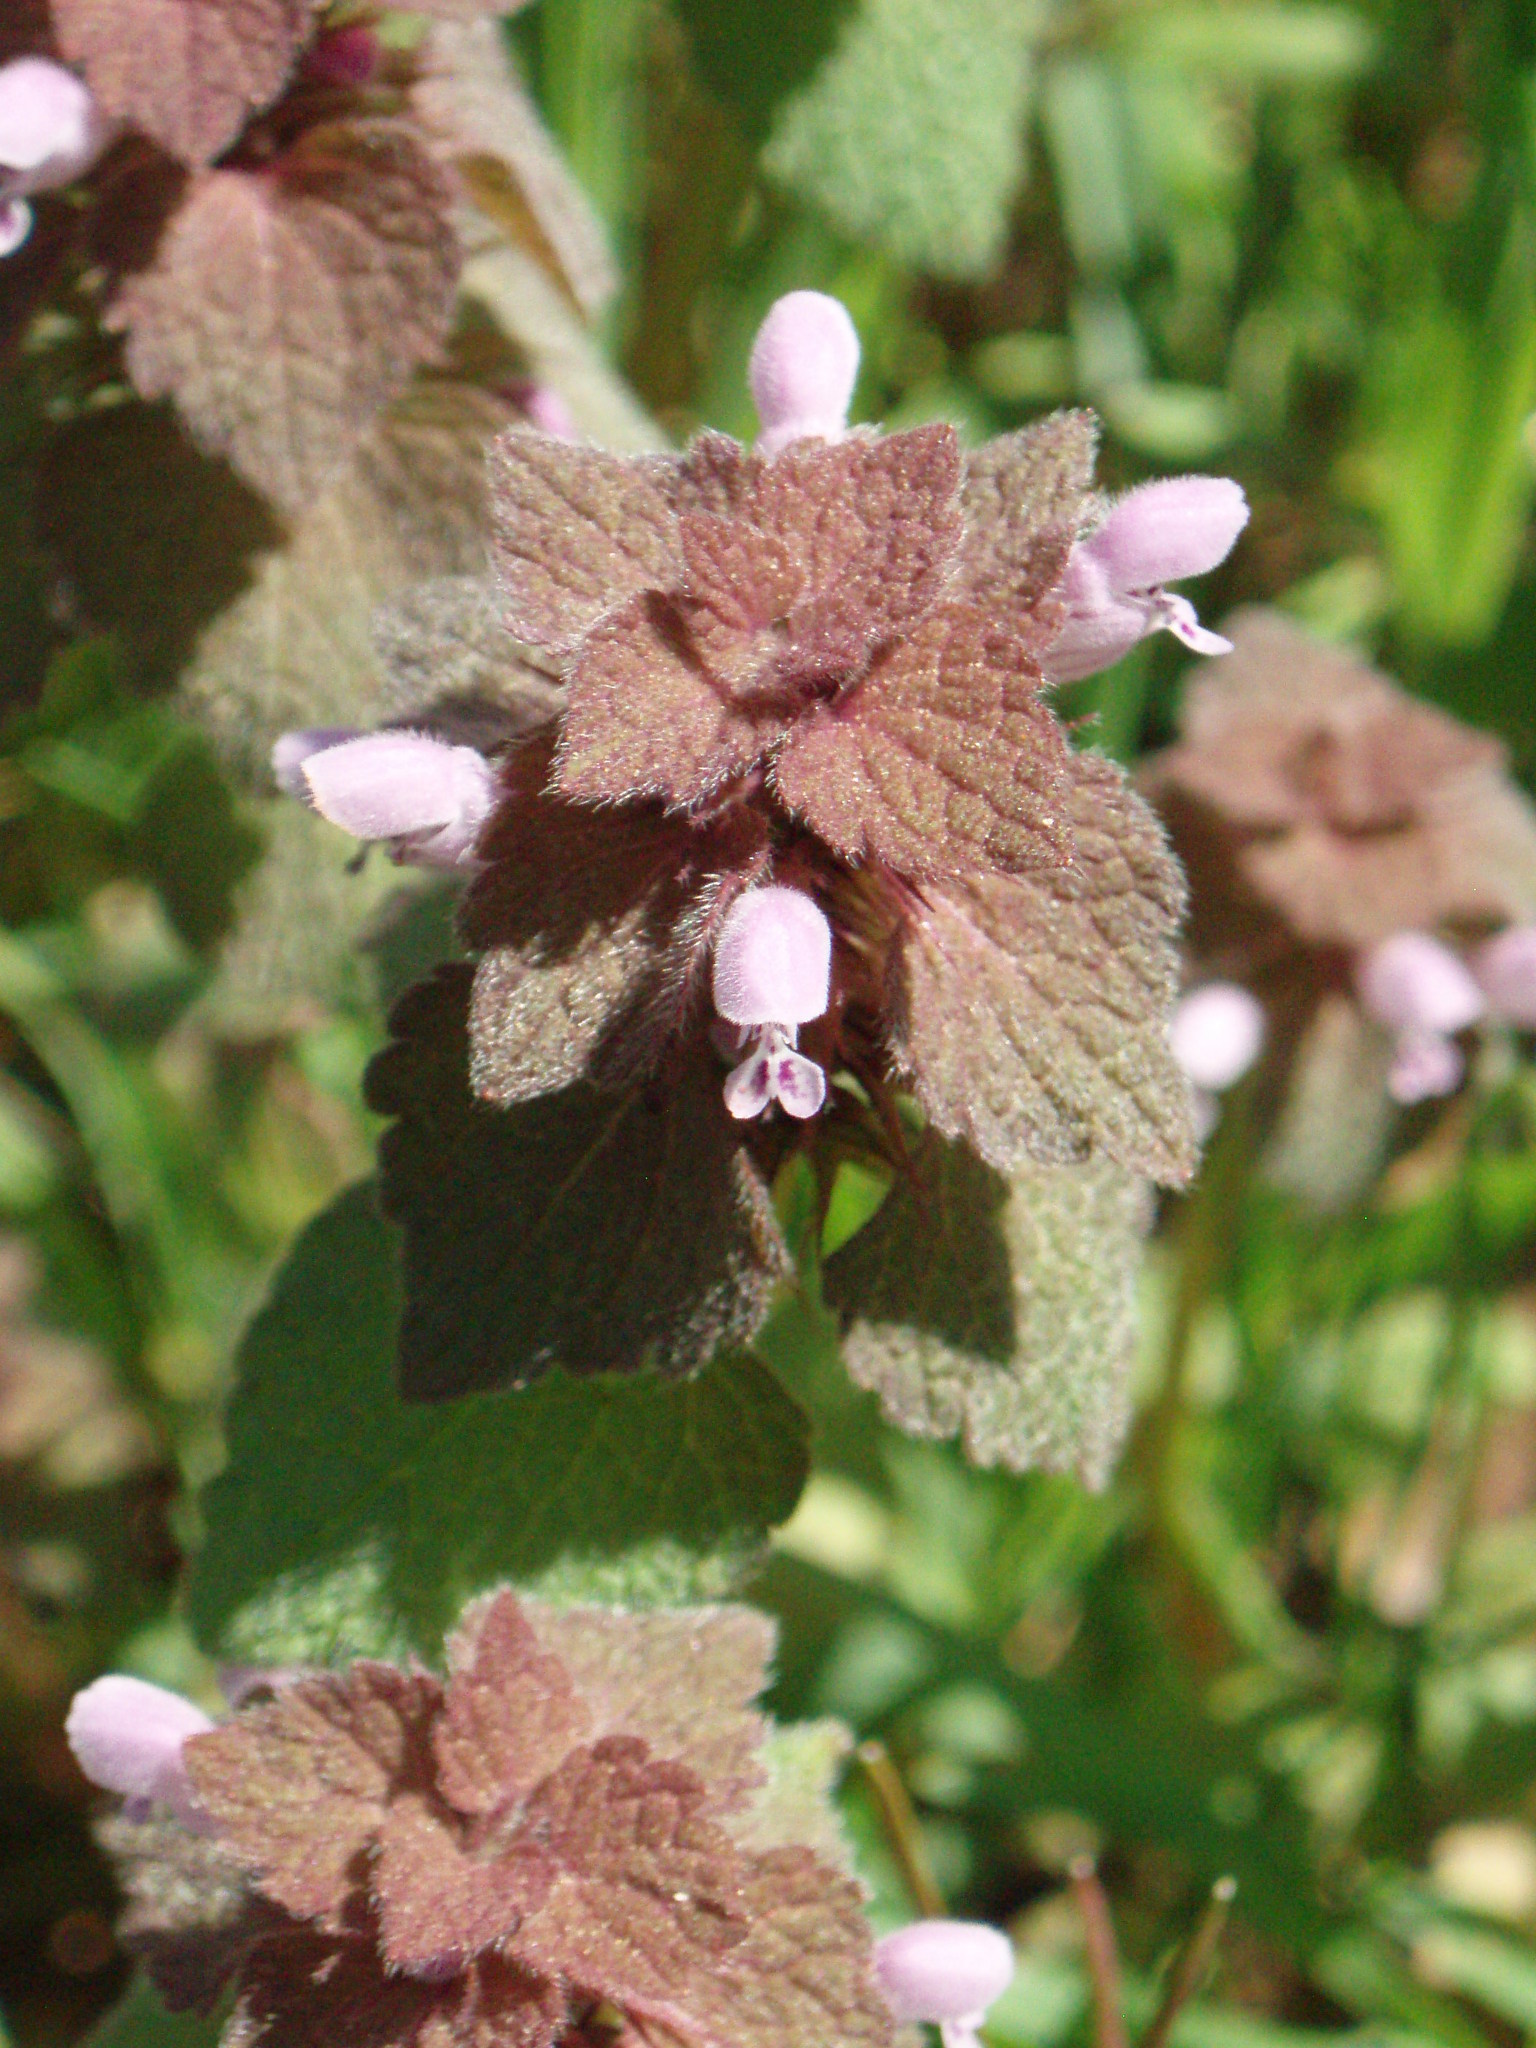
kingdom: Plantae
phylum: Tracheophyta
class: Magnoliopsida
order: Lamiales
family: Lamiaceae
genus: Lamium
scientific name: Lamium purpureum
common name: Red dead-nettle
